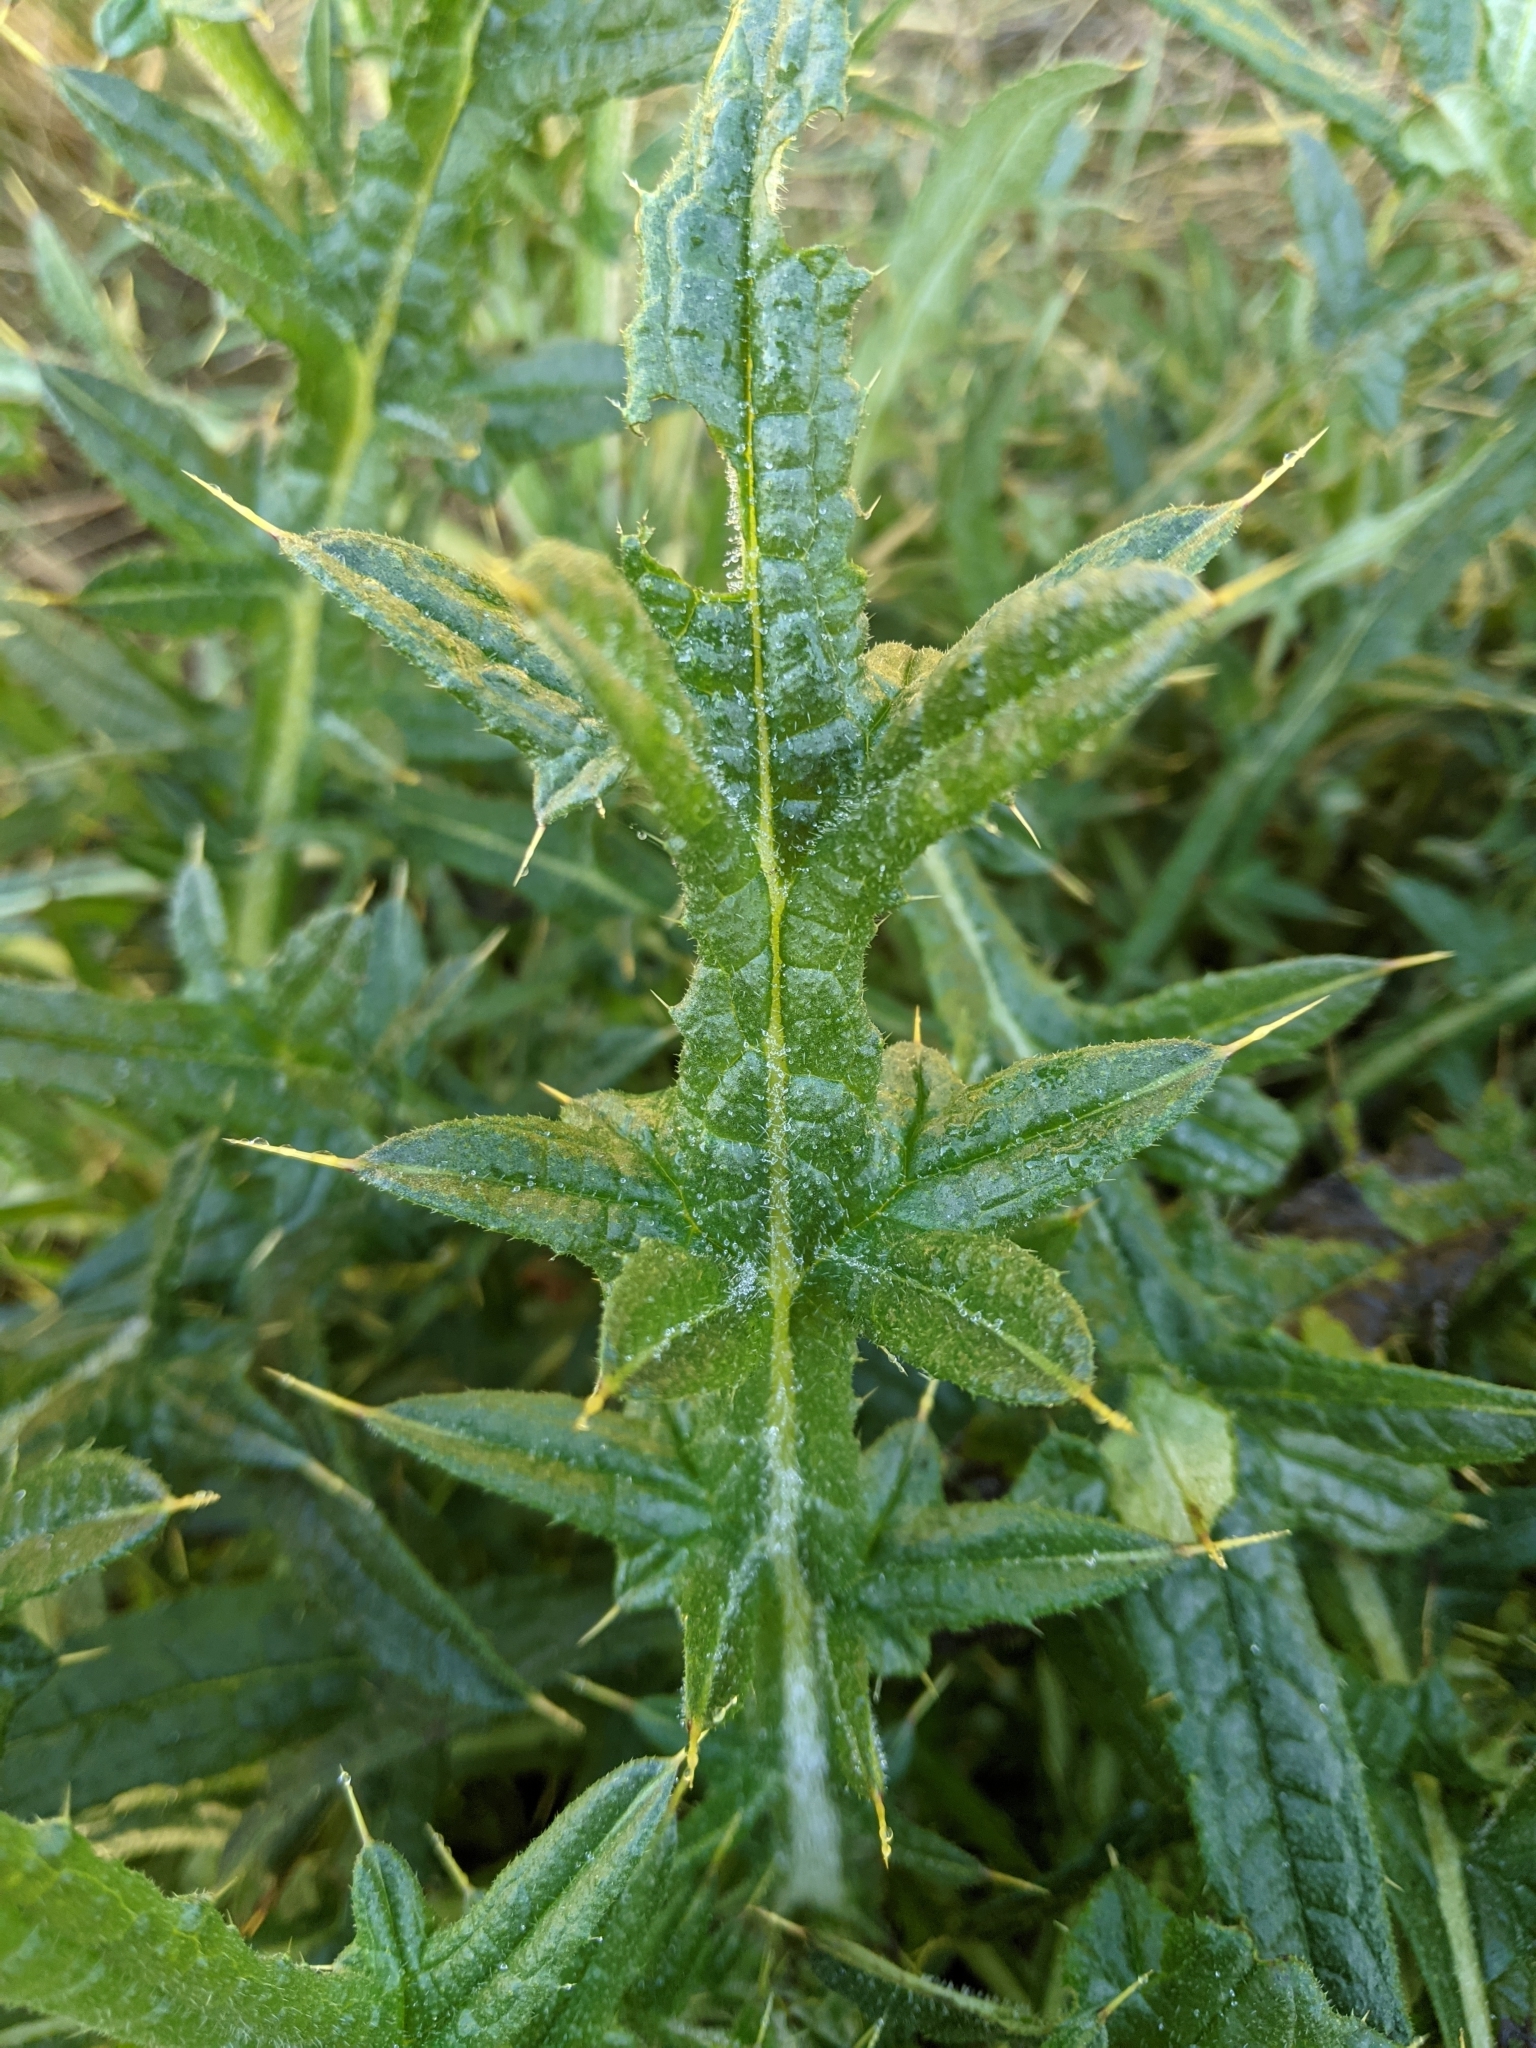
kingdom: Plantae
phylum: Tracheophyta
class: Magnoliopsida
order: Asterales
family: Asteraceae
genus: Cirsium
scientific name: Cirsium vulgare
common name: Bull thistle
